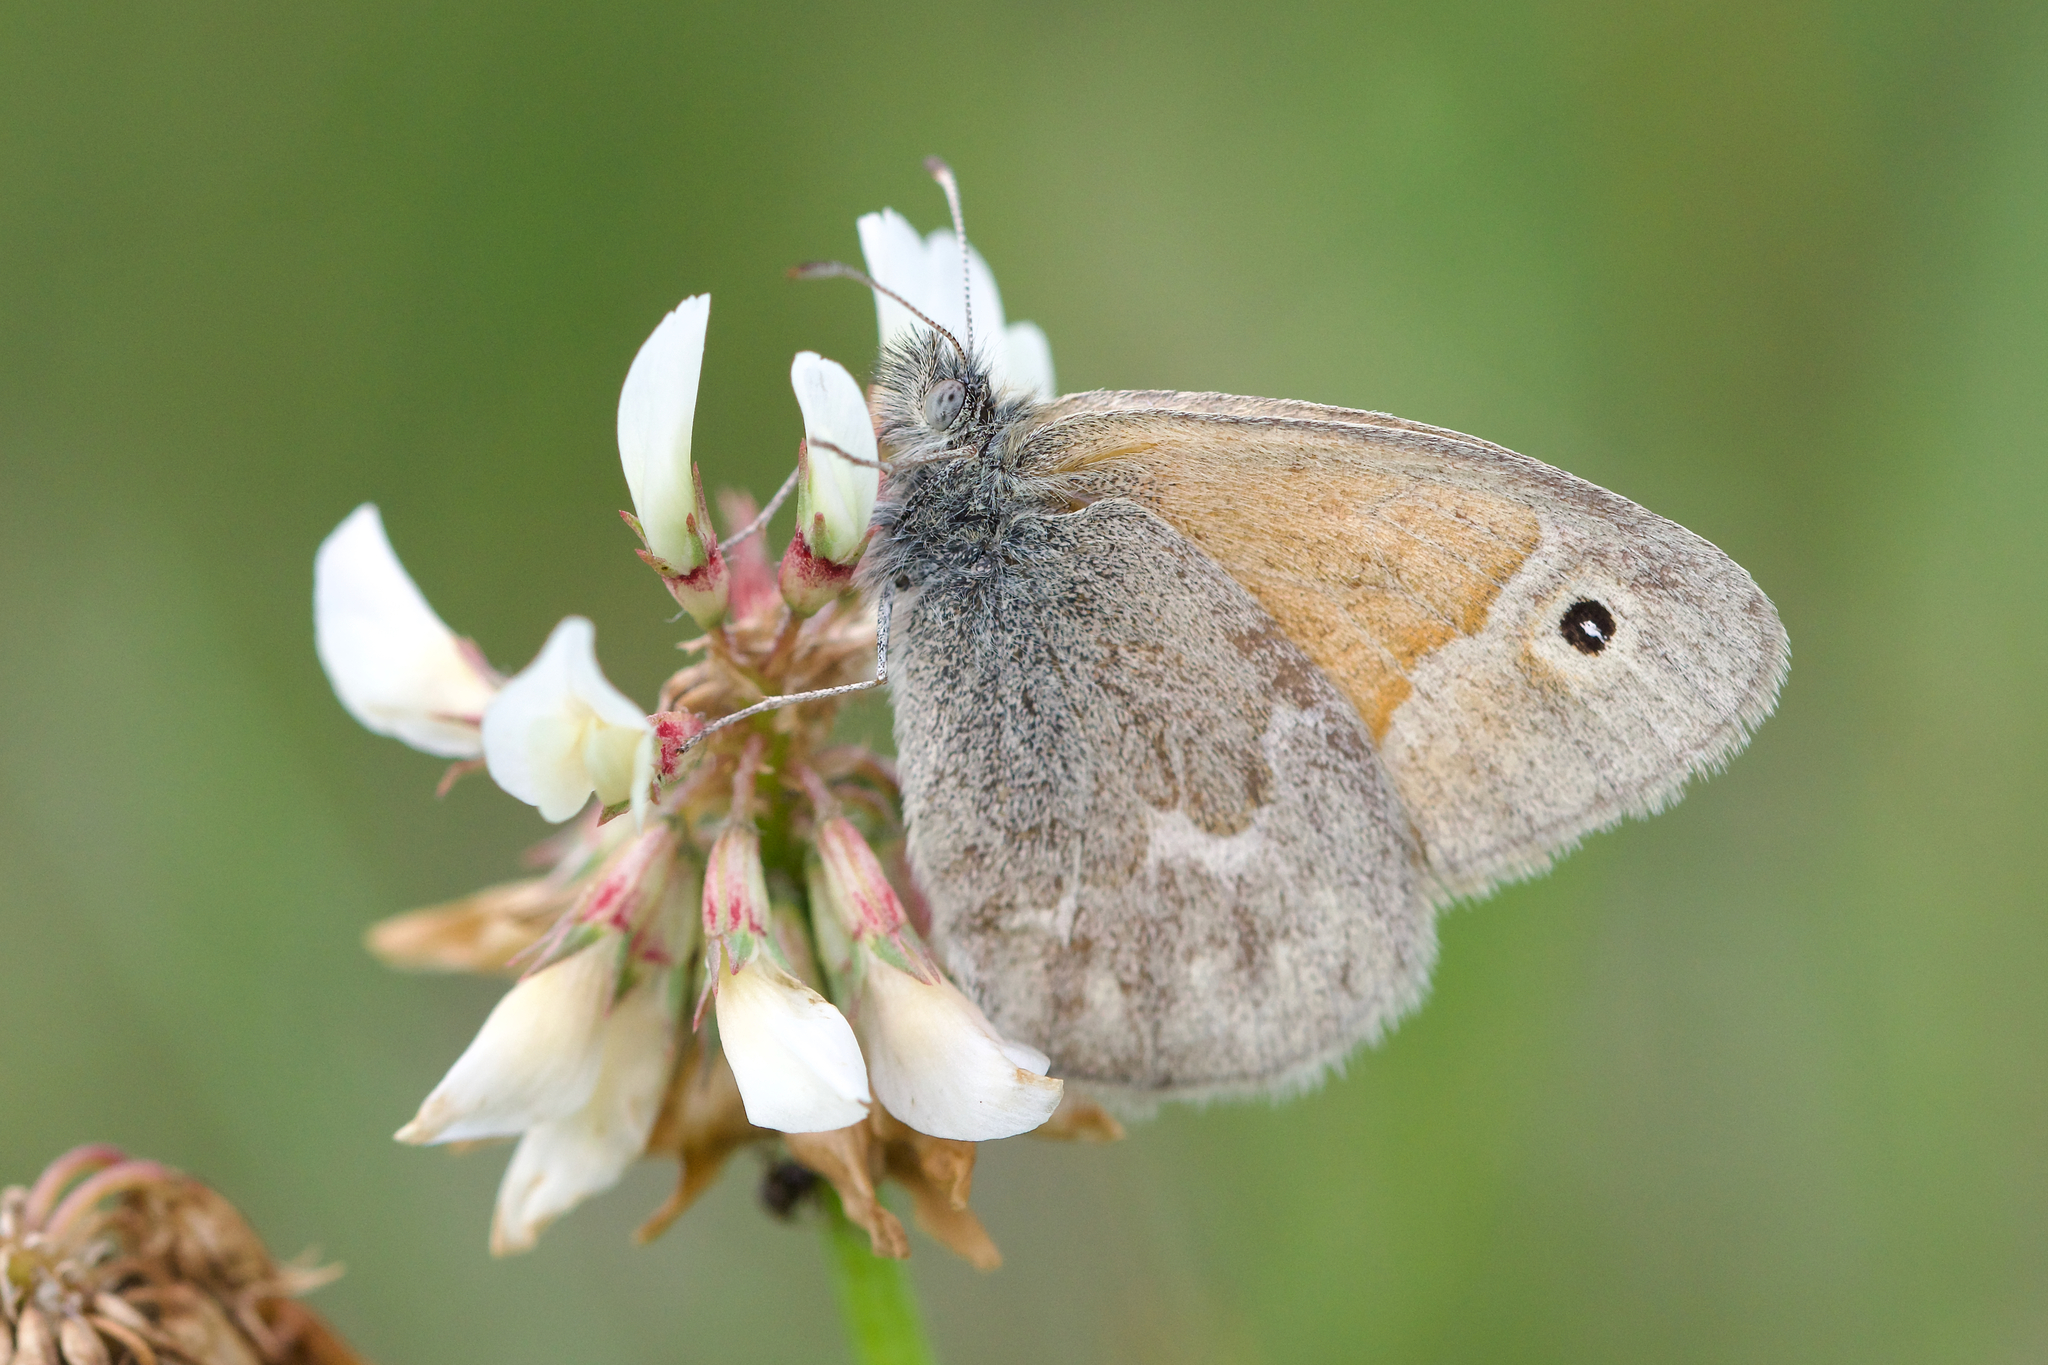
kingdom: Animalia
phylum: Arthropoda
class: Insecta
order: Lepidoptera
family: Nymphalidae
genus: Coenonympha
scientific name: Coenonympha california
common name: Common ringlet
